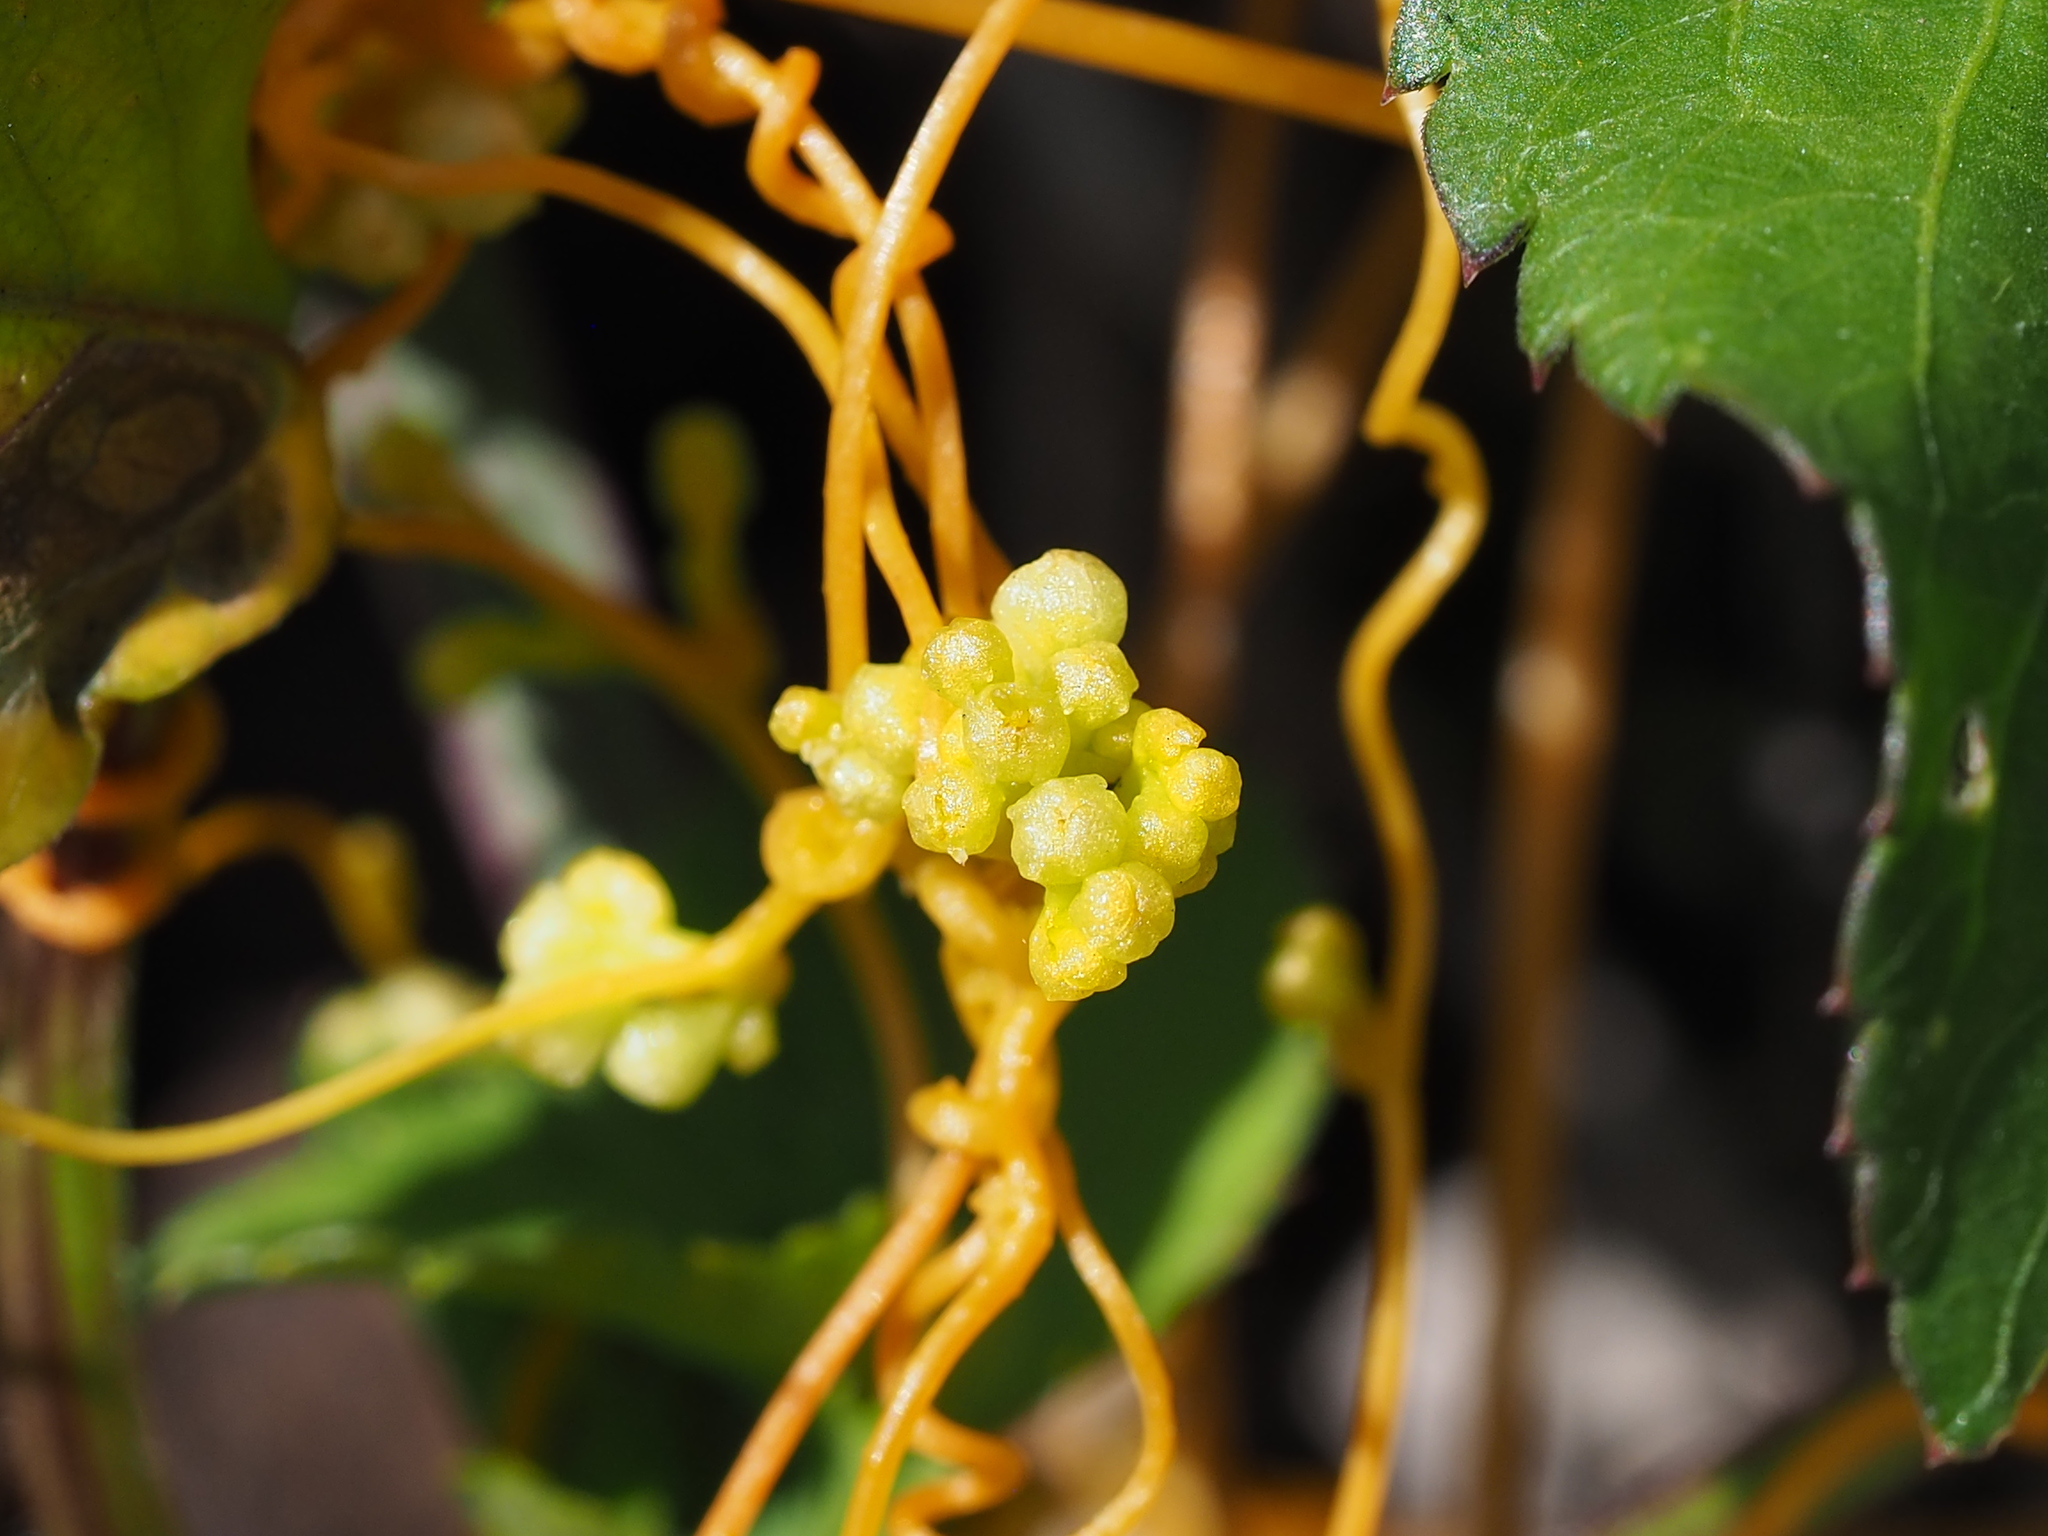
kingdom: Plantae
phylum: Tracheophyta
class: Magnoliopsida
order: Solanales
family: Convolvulaceae
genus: Cuscuta
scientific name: Cuscuta campestris
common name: Yellow dodder
